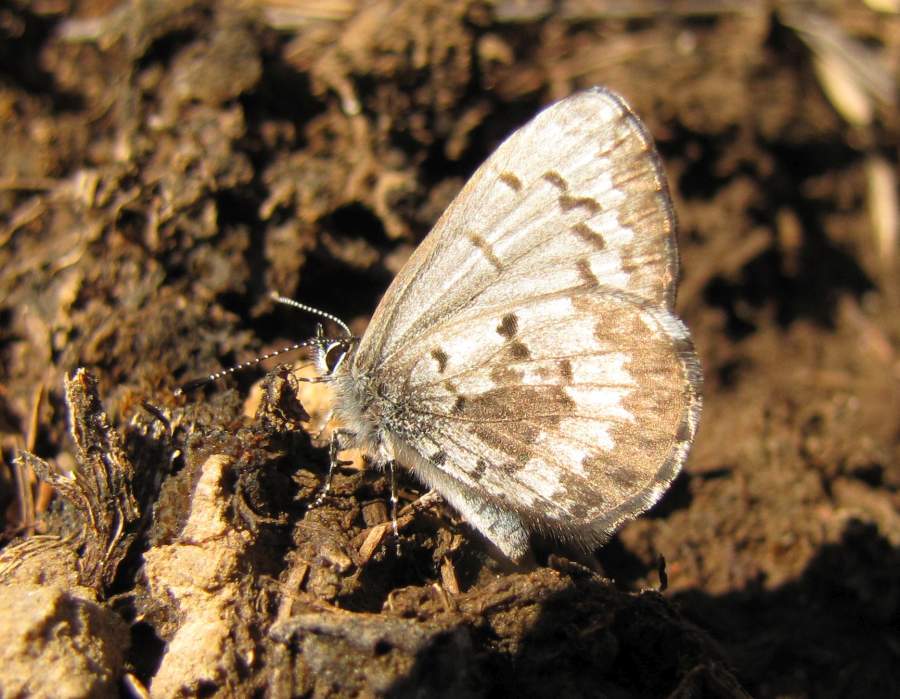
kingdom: Animalia
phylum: Arthropoda
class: Insecta
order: Lepidoptera
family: Lycaenidae
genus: Celastrina
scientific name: Celastrina lucia
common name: Lucia azure
